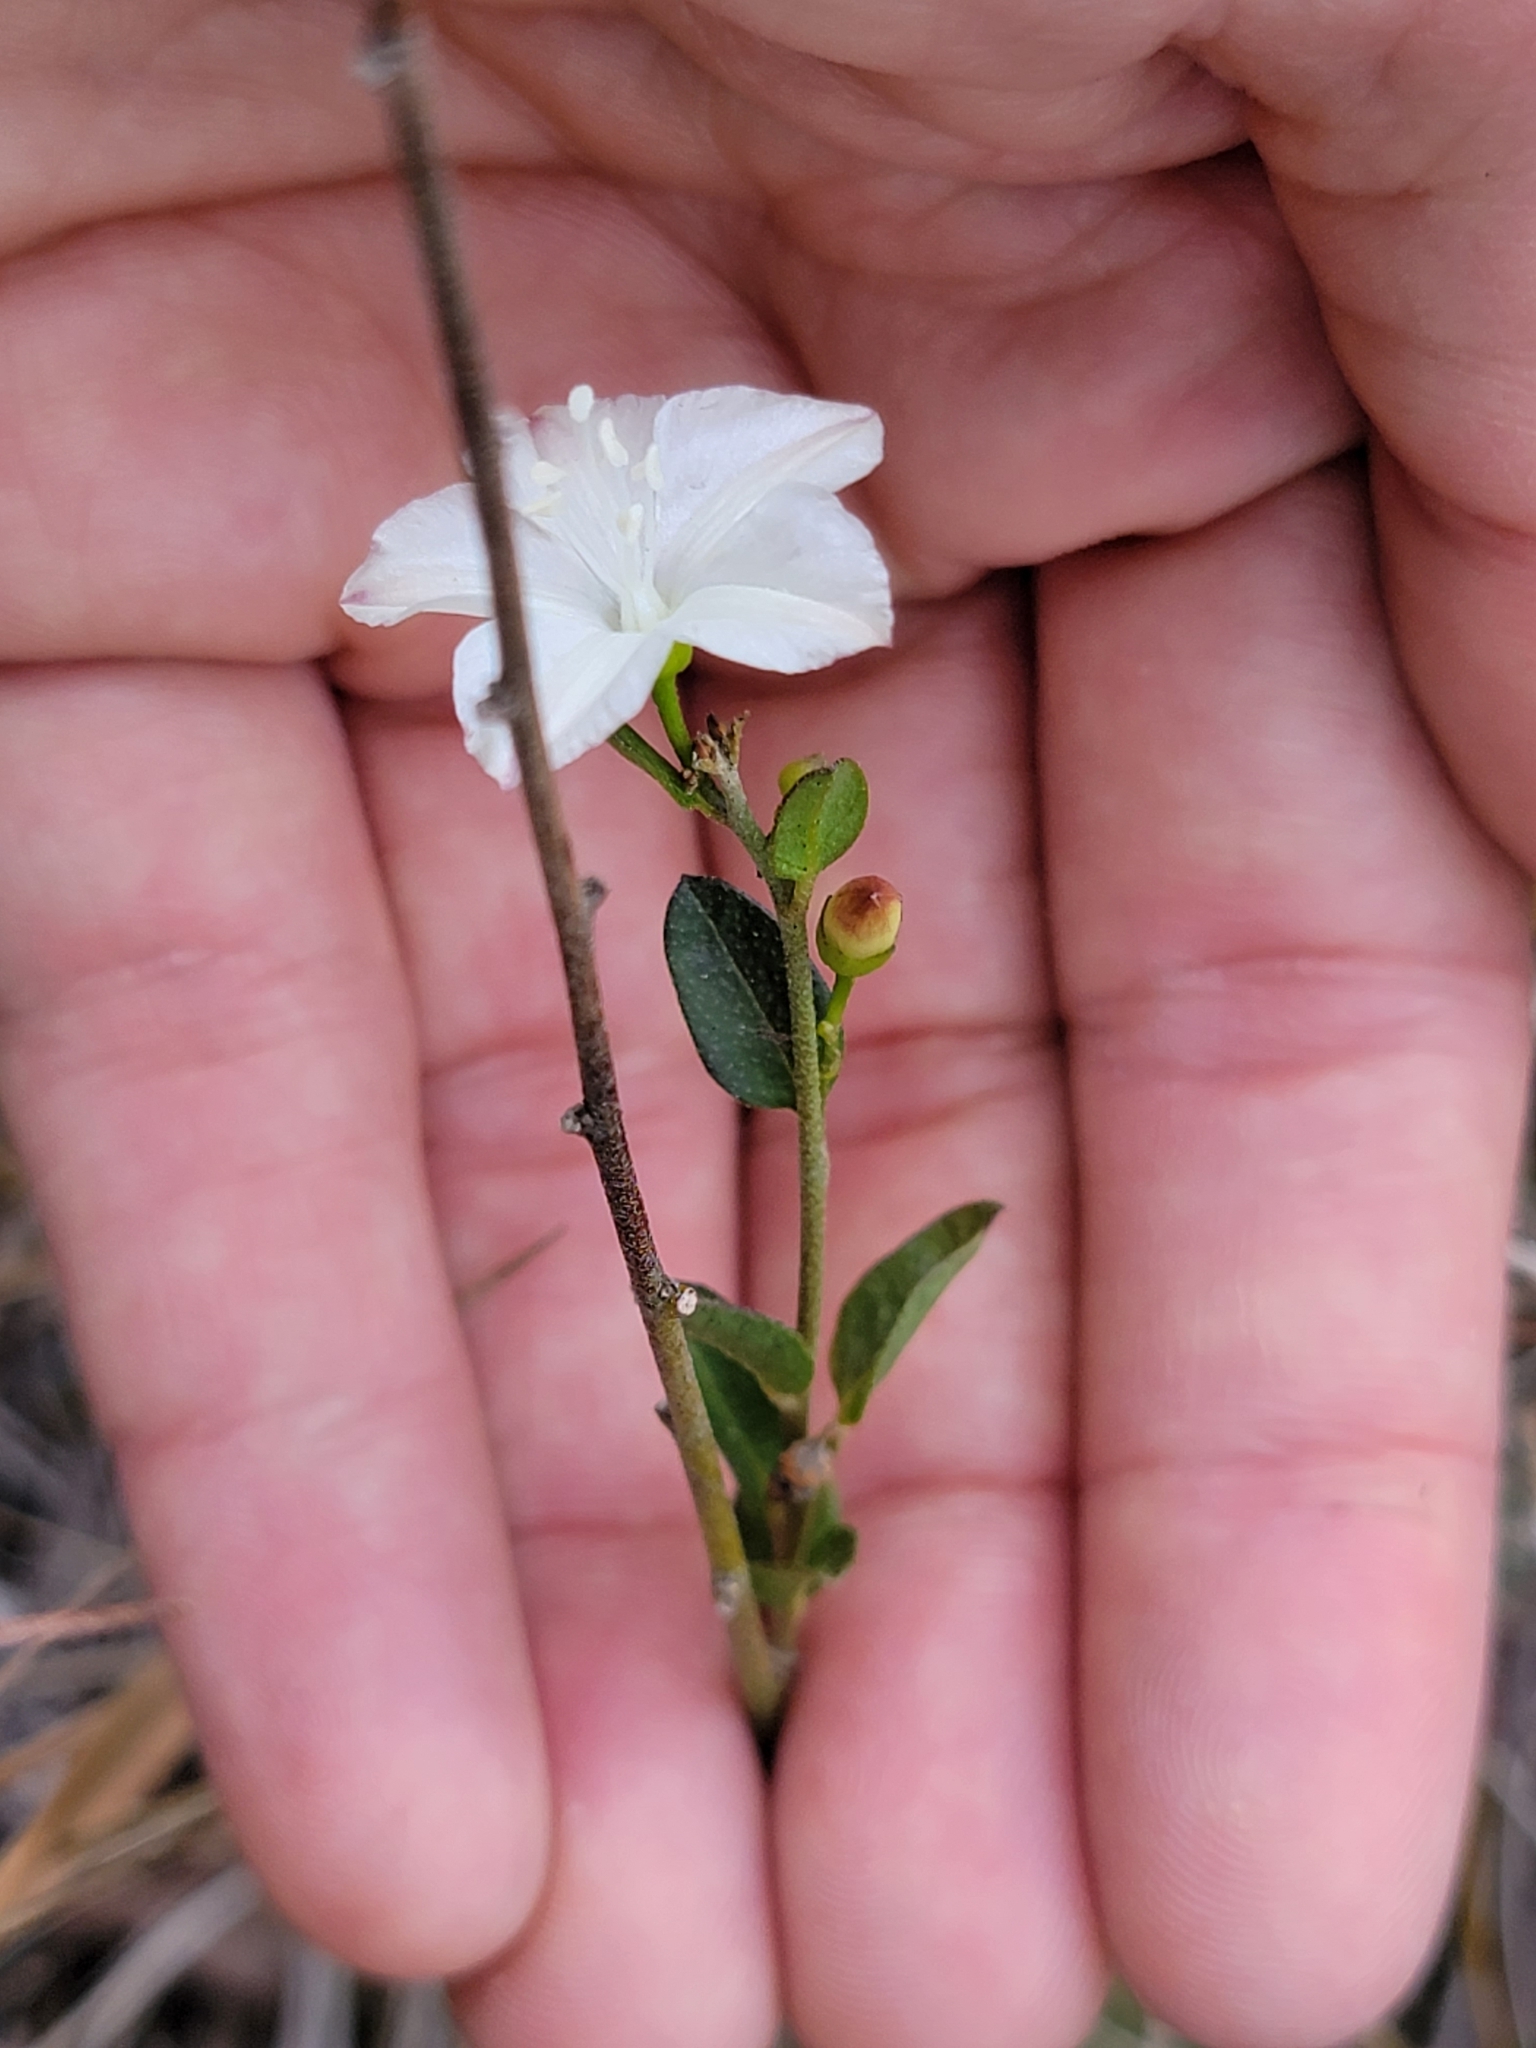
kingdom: Plantae
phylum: Tracheophyta
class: Magnoliopsida
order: Solanales
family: Convolvulaceae
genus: Jacquemontia
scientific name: Jacquemontia curtissii
